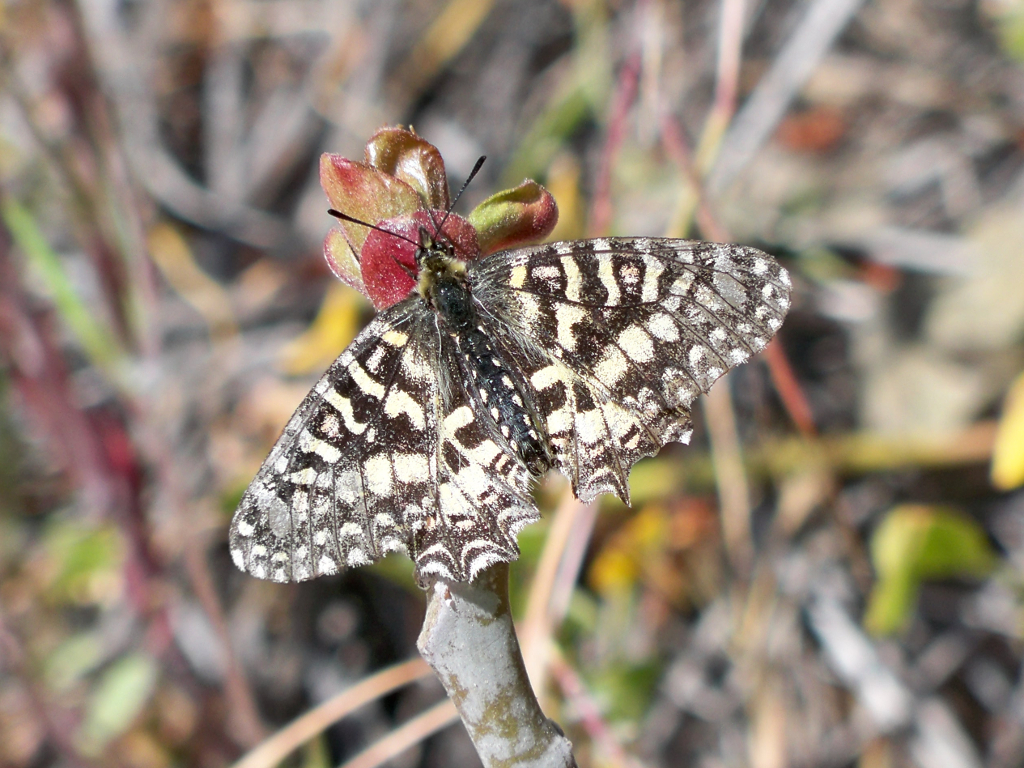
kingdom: Animalia
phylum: Arthropoda
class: Insecta
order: Lepidoptera
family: Papilionidae
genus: Zerynthia
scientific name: Zerynthia rumina
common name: Spanish festoon
